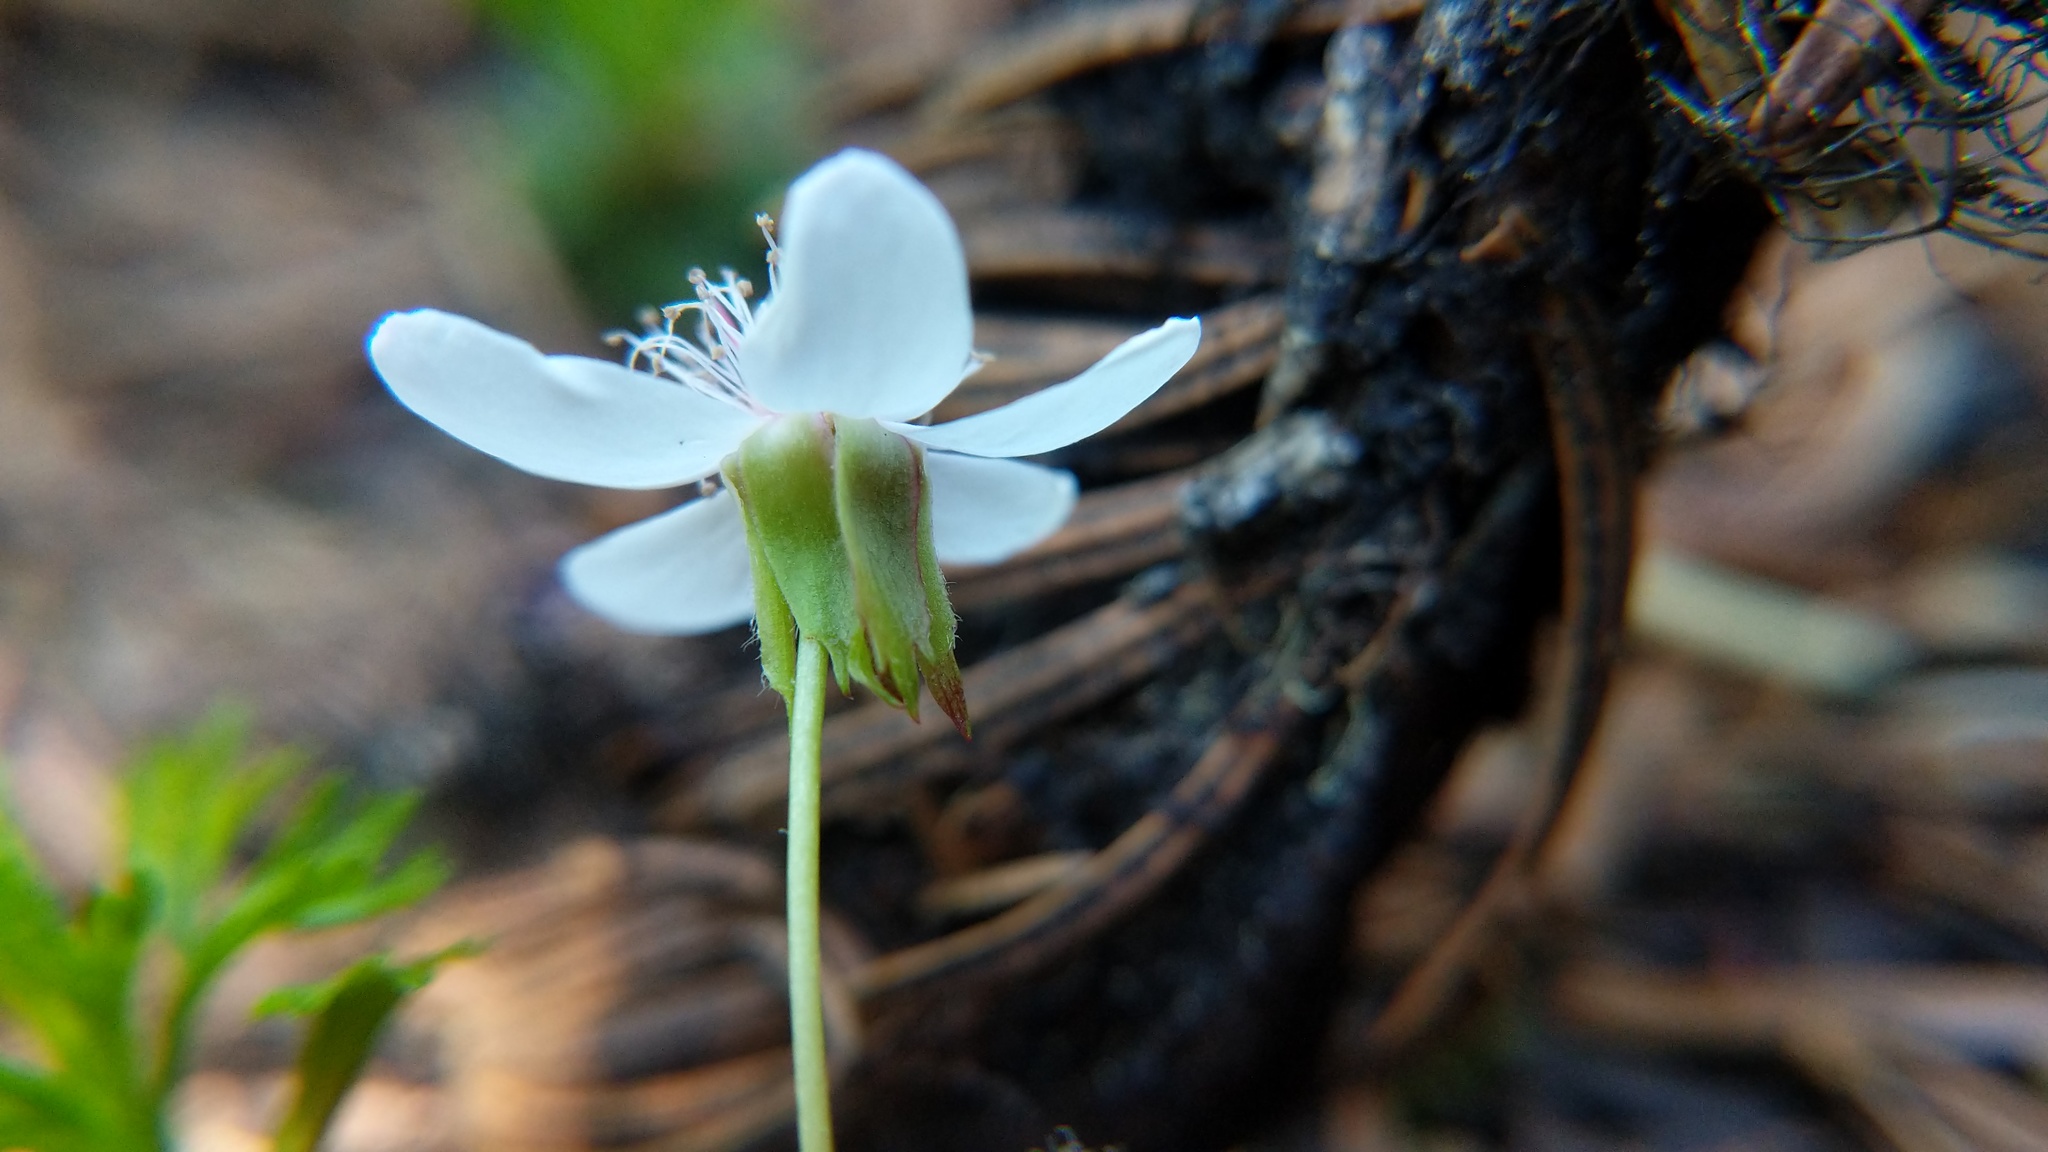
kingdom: Plantae
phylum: Tracheophyta
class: Magnoliopsida
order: Rosales
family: Rosaceae
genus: Rubus
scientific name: Rubus pedatus
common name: Creeping raspberry
